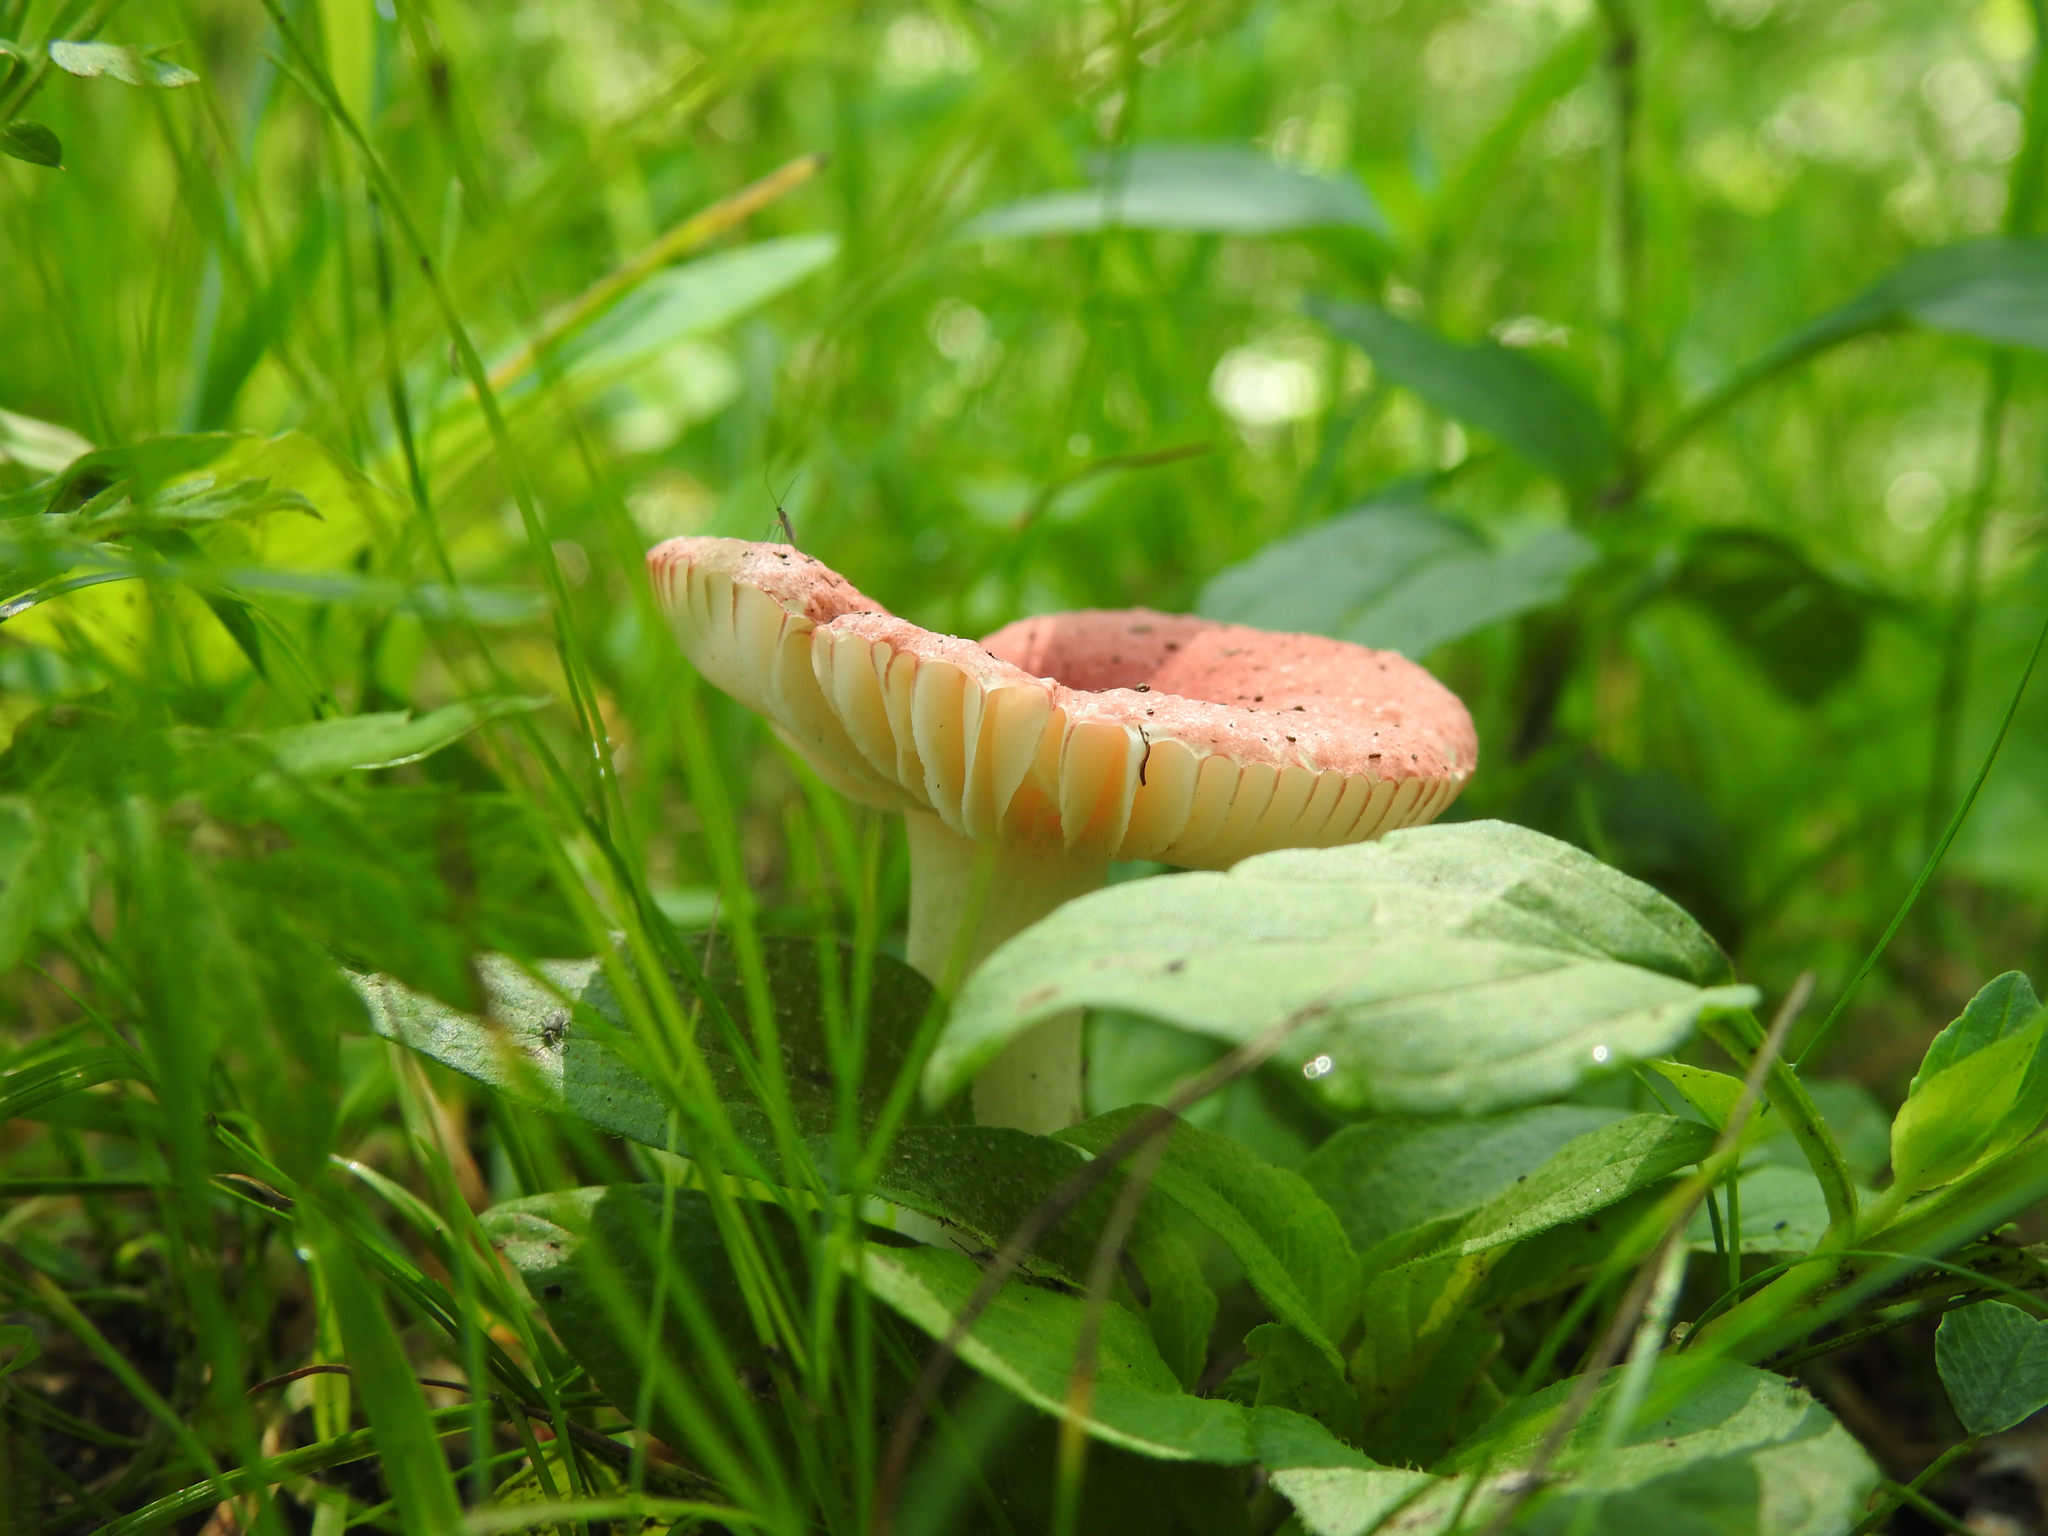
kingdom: Fungi
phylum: Basidiomycota
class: Agaricomycetes
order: Russulales
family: Russulaceae
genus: Russula
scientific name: Russula
